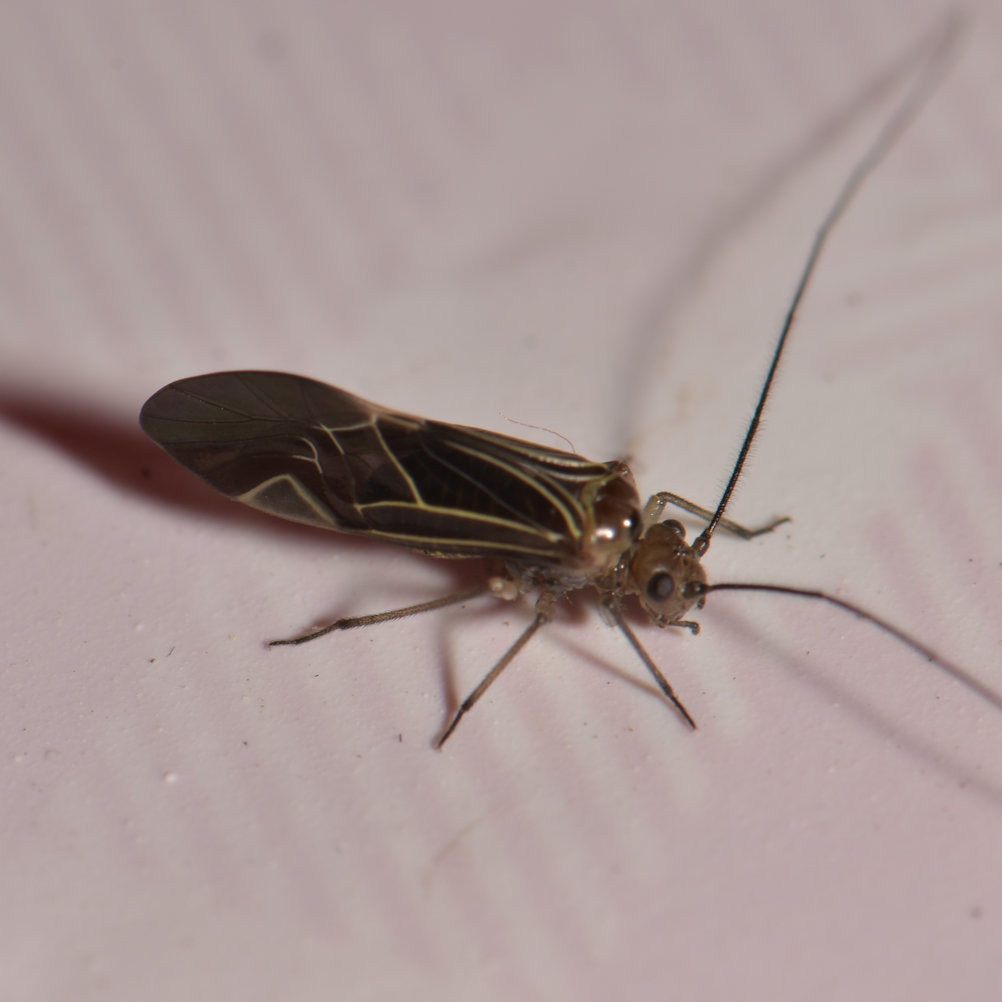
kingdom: Animalia
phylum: Arthropoda
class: Insecta
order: Psocodea
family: Psocidae
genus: Cerastipsocus
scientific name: Cerastipsocus venosus
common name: Tree cattle
